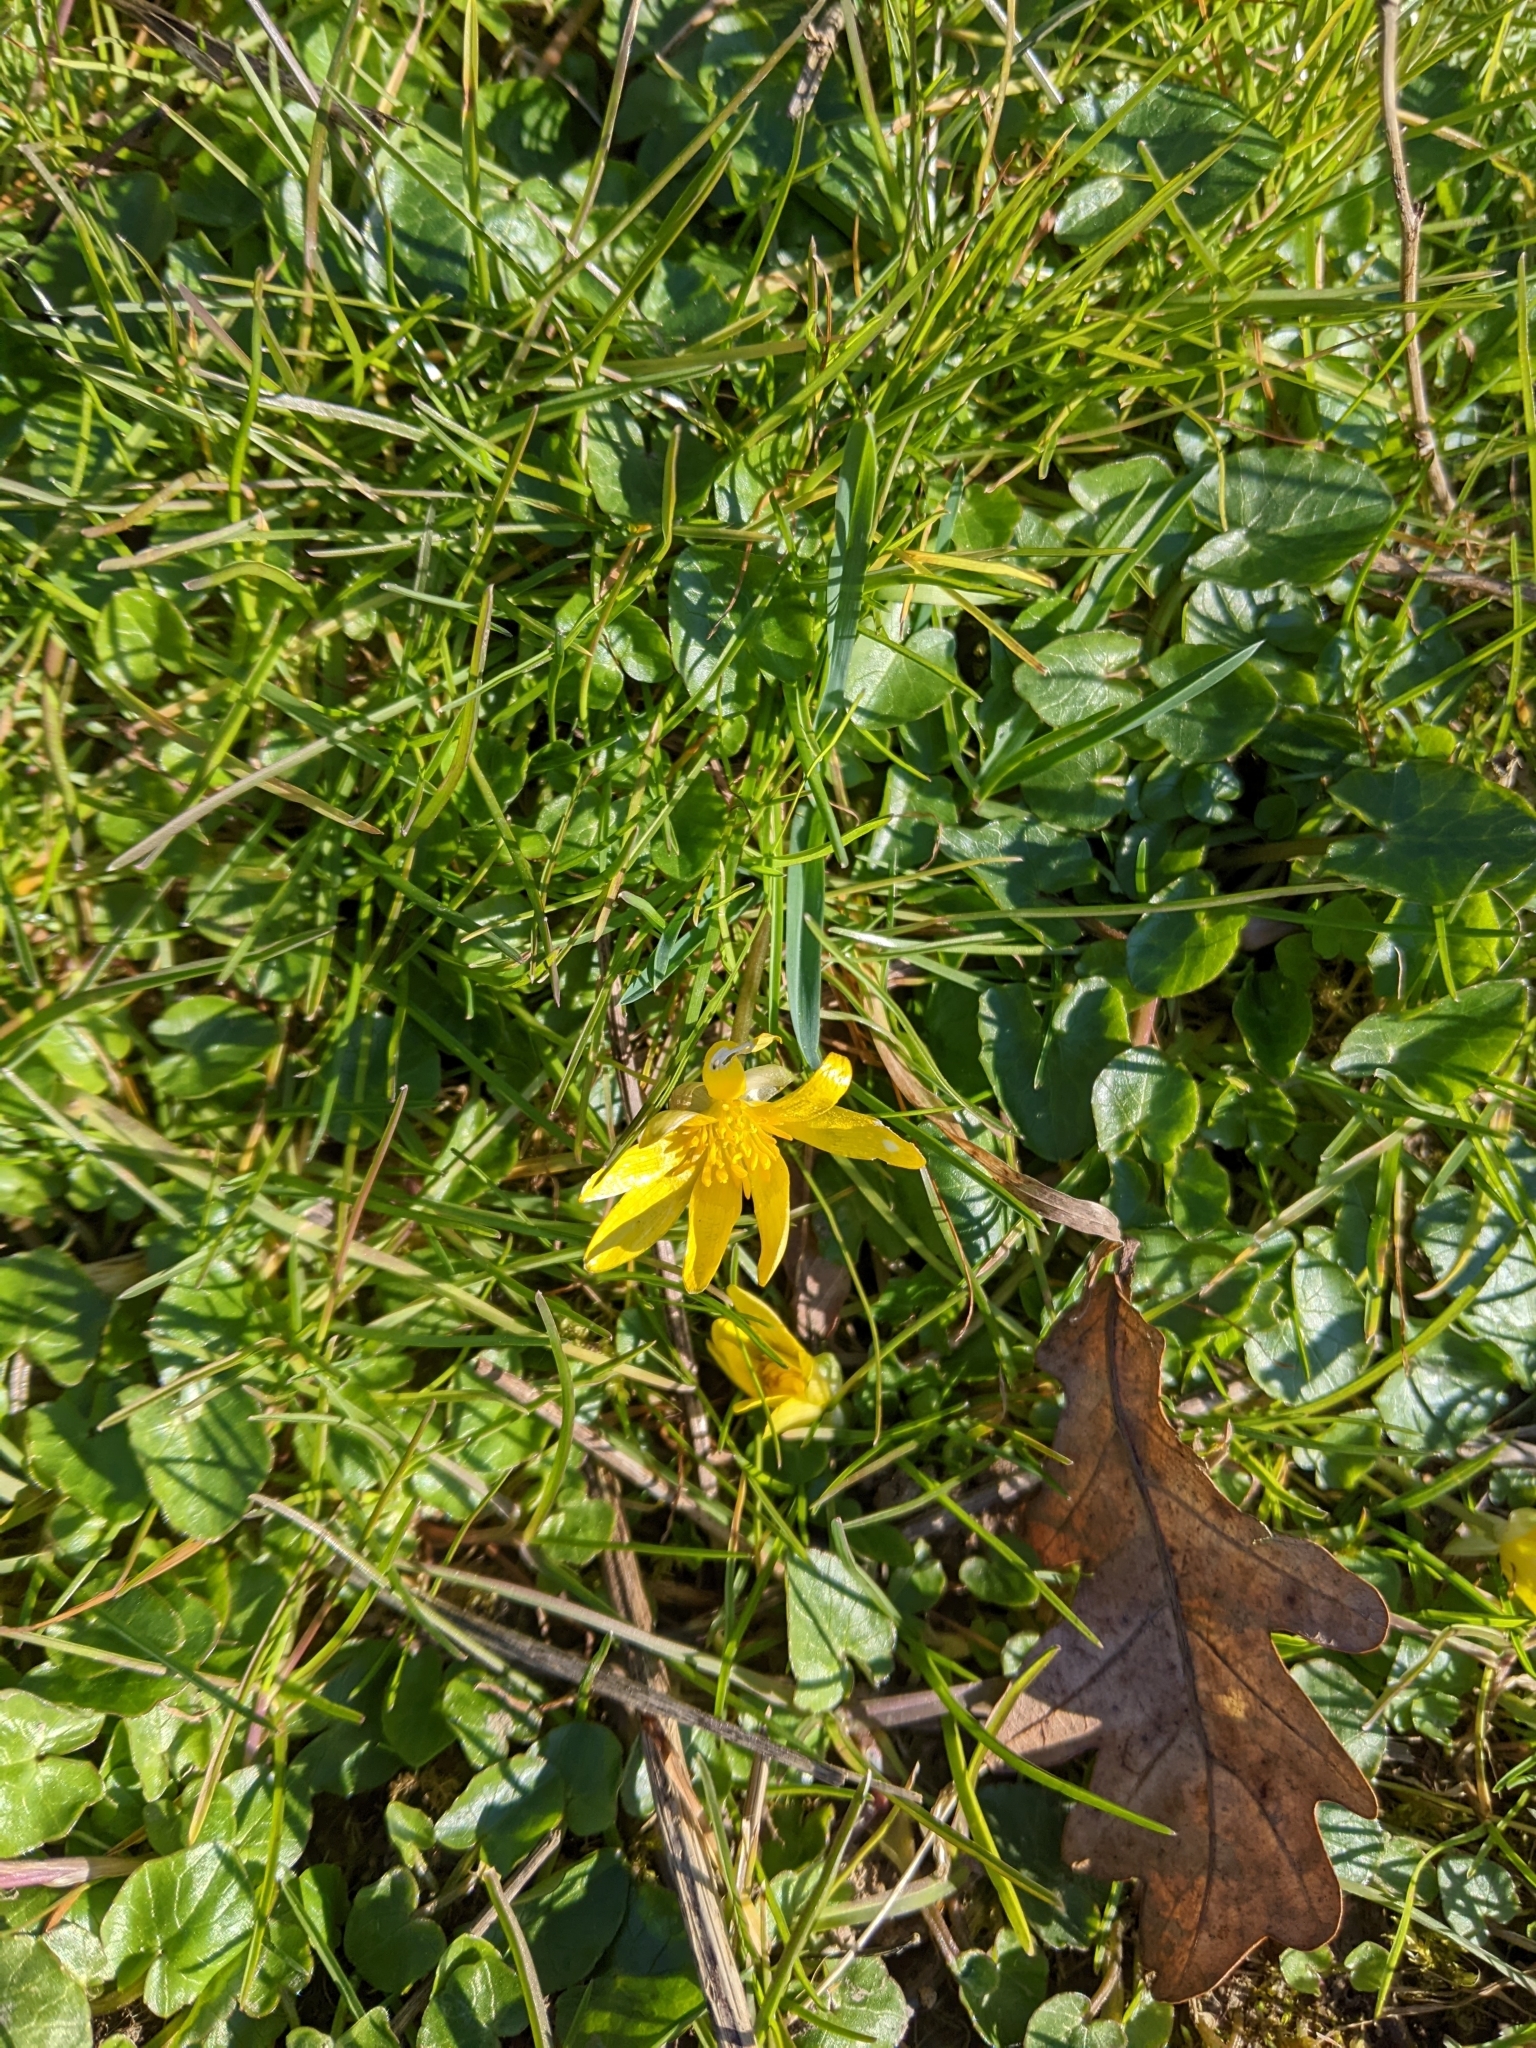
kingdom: Plantae
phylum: Tracheophyta
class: Magnoliopsida
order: Ranunculales
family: Ranunculaceae
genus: Ficaria
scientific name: Ficaria verna
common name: Lesser celandine
